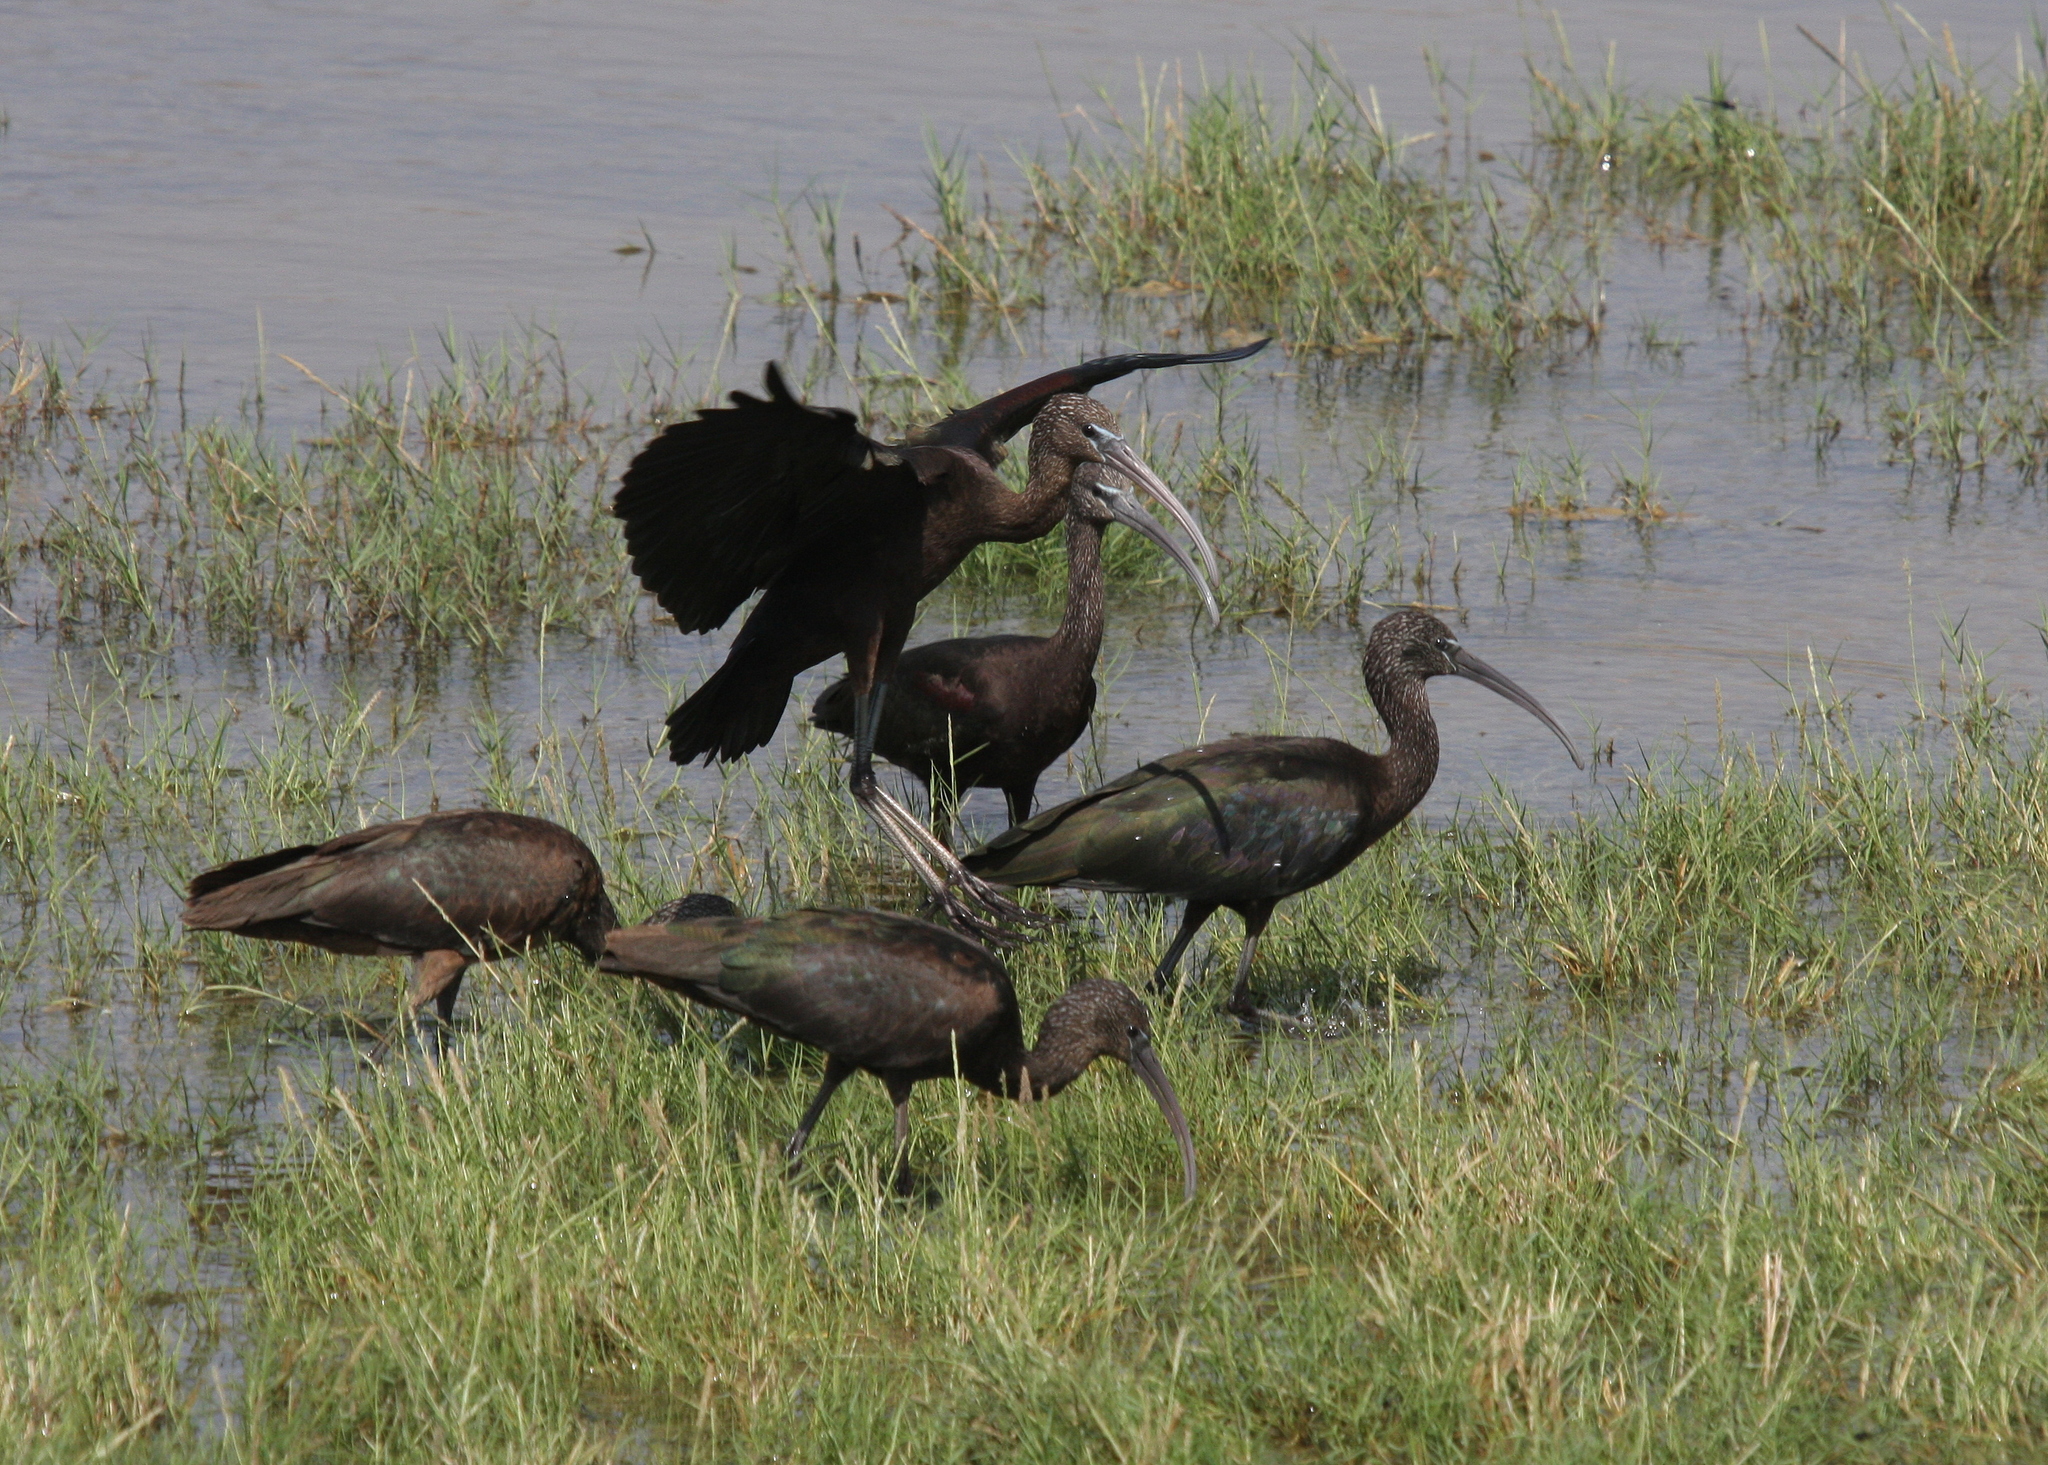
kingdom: Animalia
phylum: Chordata
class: Aves
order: Pelecaniformes
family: Threskiornithidae
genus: Plegadis
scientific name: Plegadis falcinellus
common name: Glossy ibis
